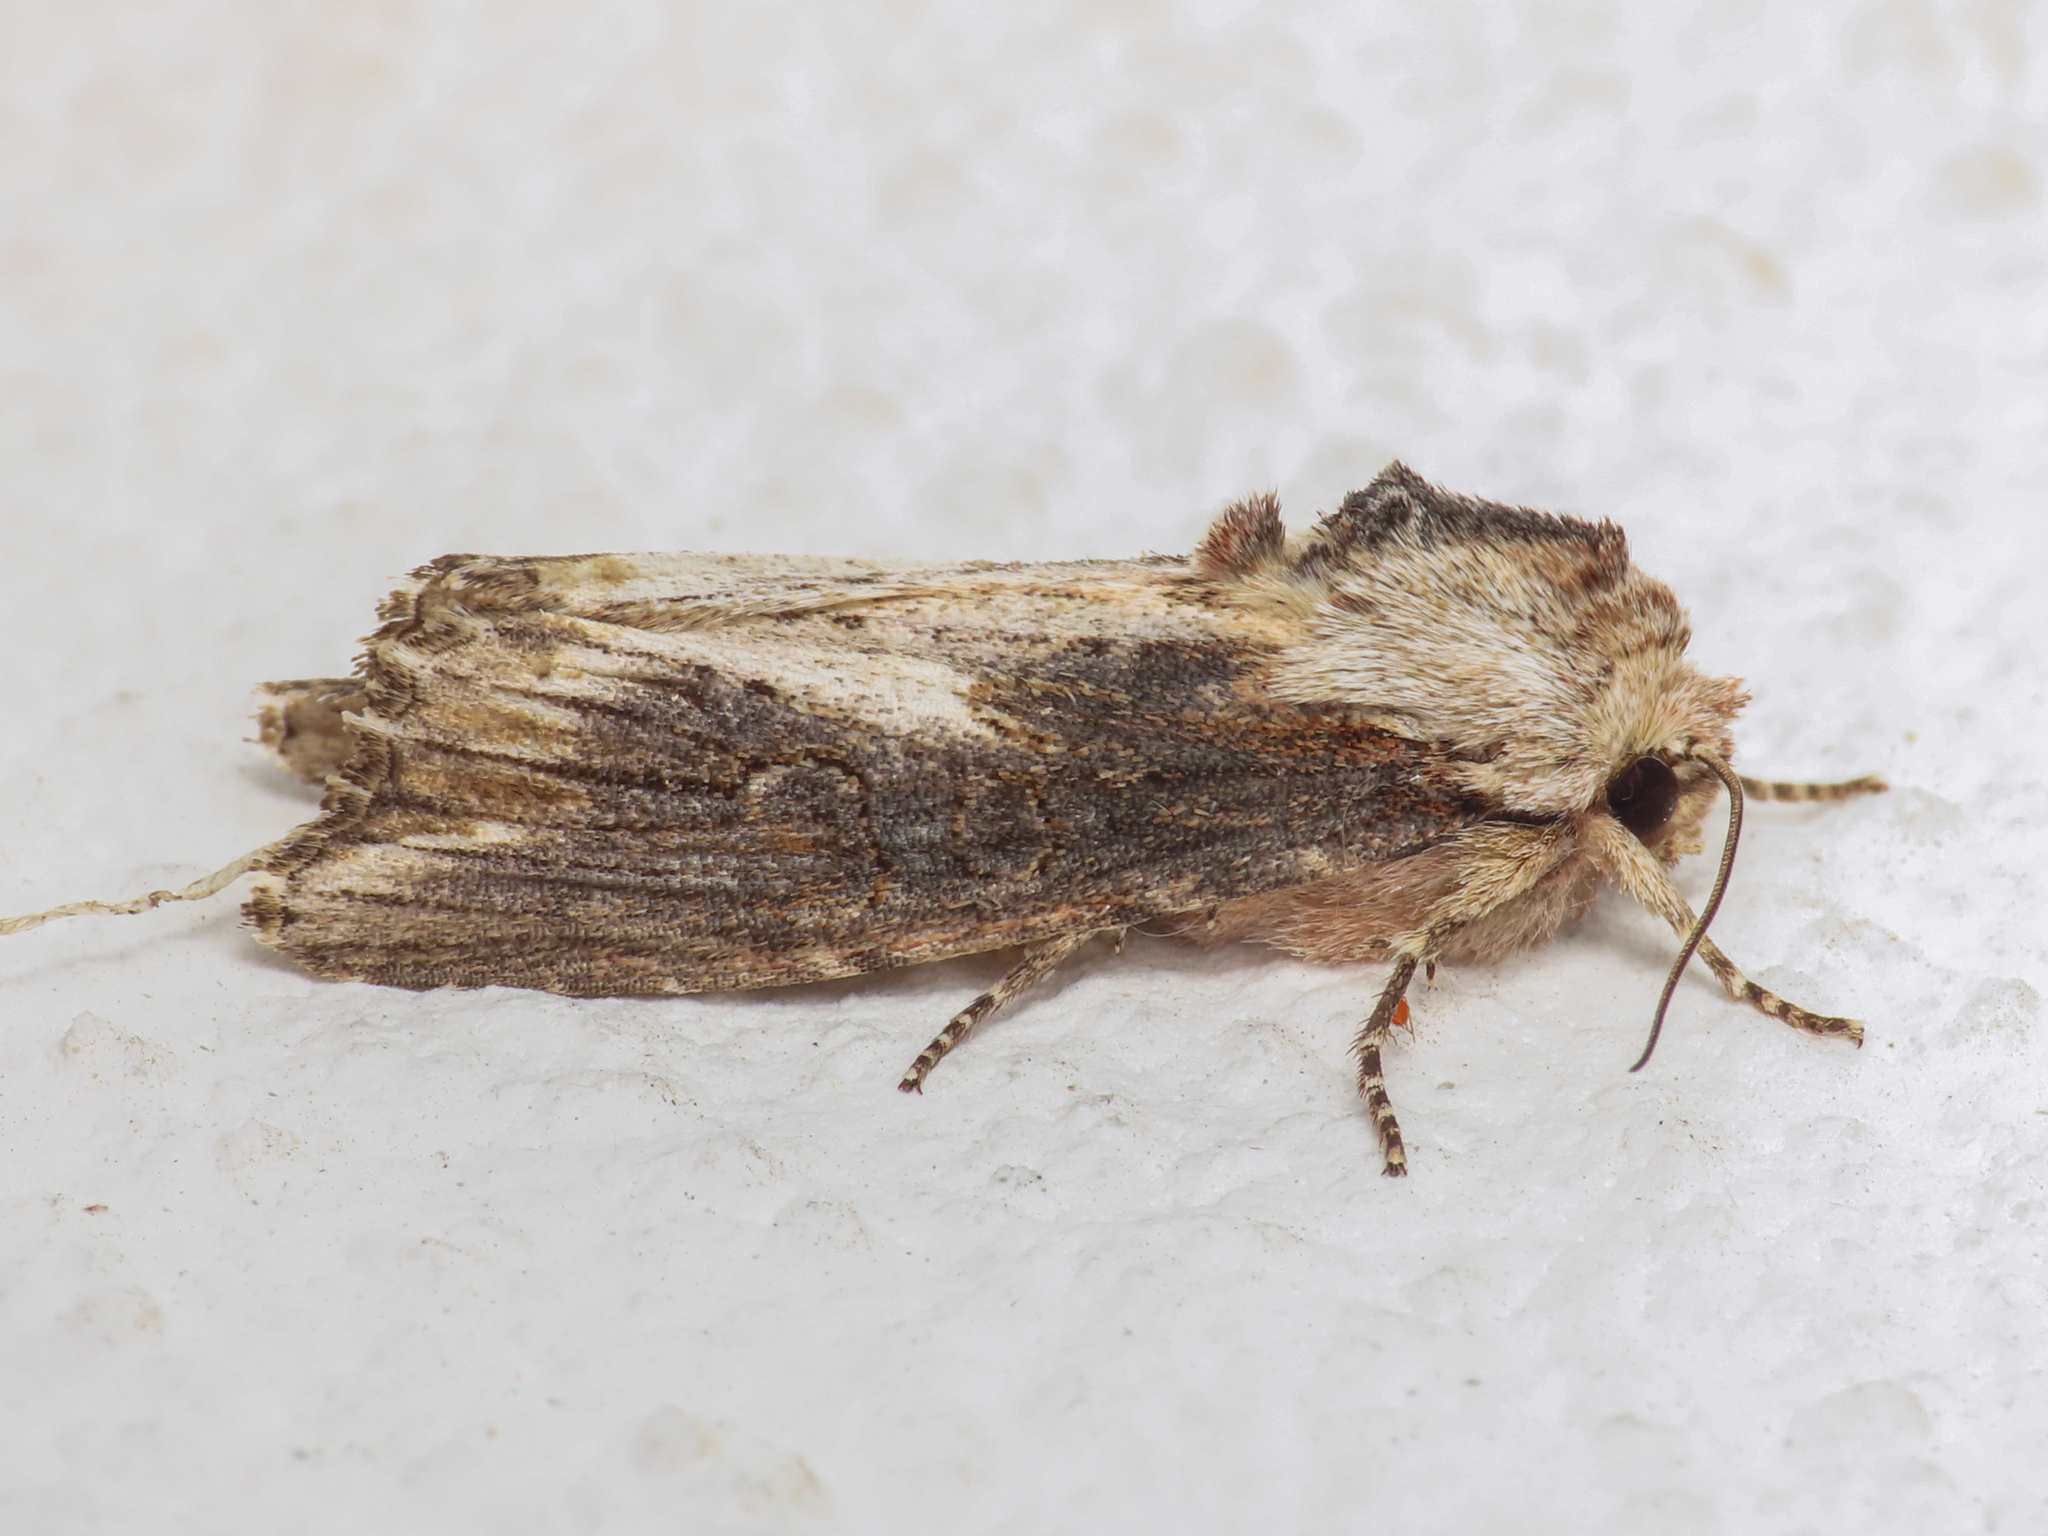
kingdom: Animalia
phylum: Arthropoda
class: Insecta
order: Lepidoptera
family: Noctuidae
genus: Egira
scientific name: Egira conspicillaris
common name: Silver cloud
